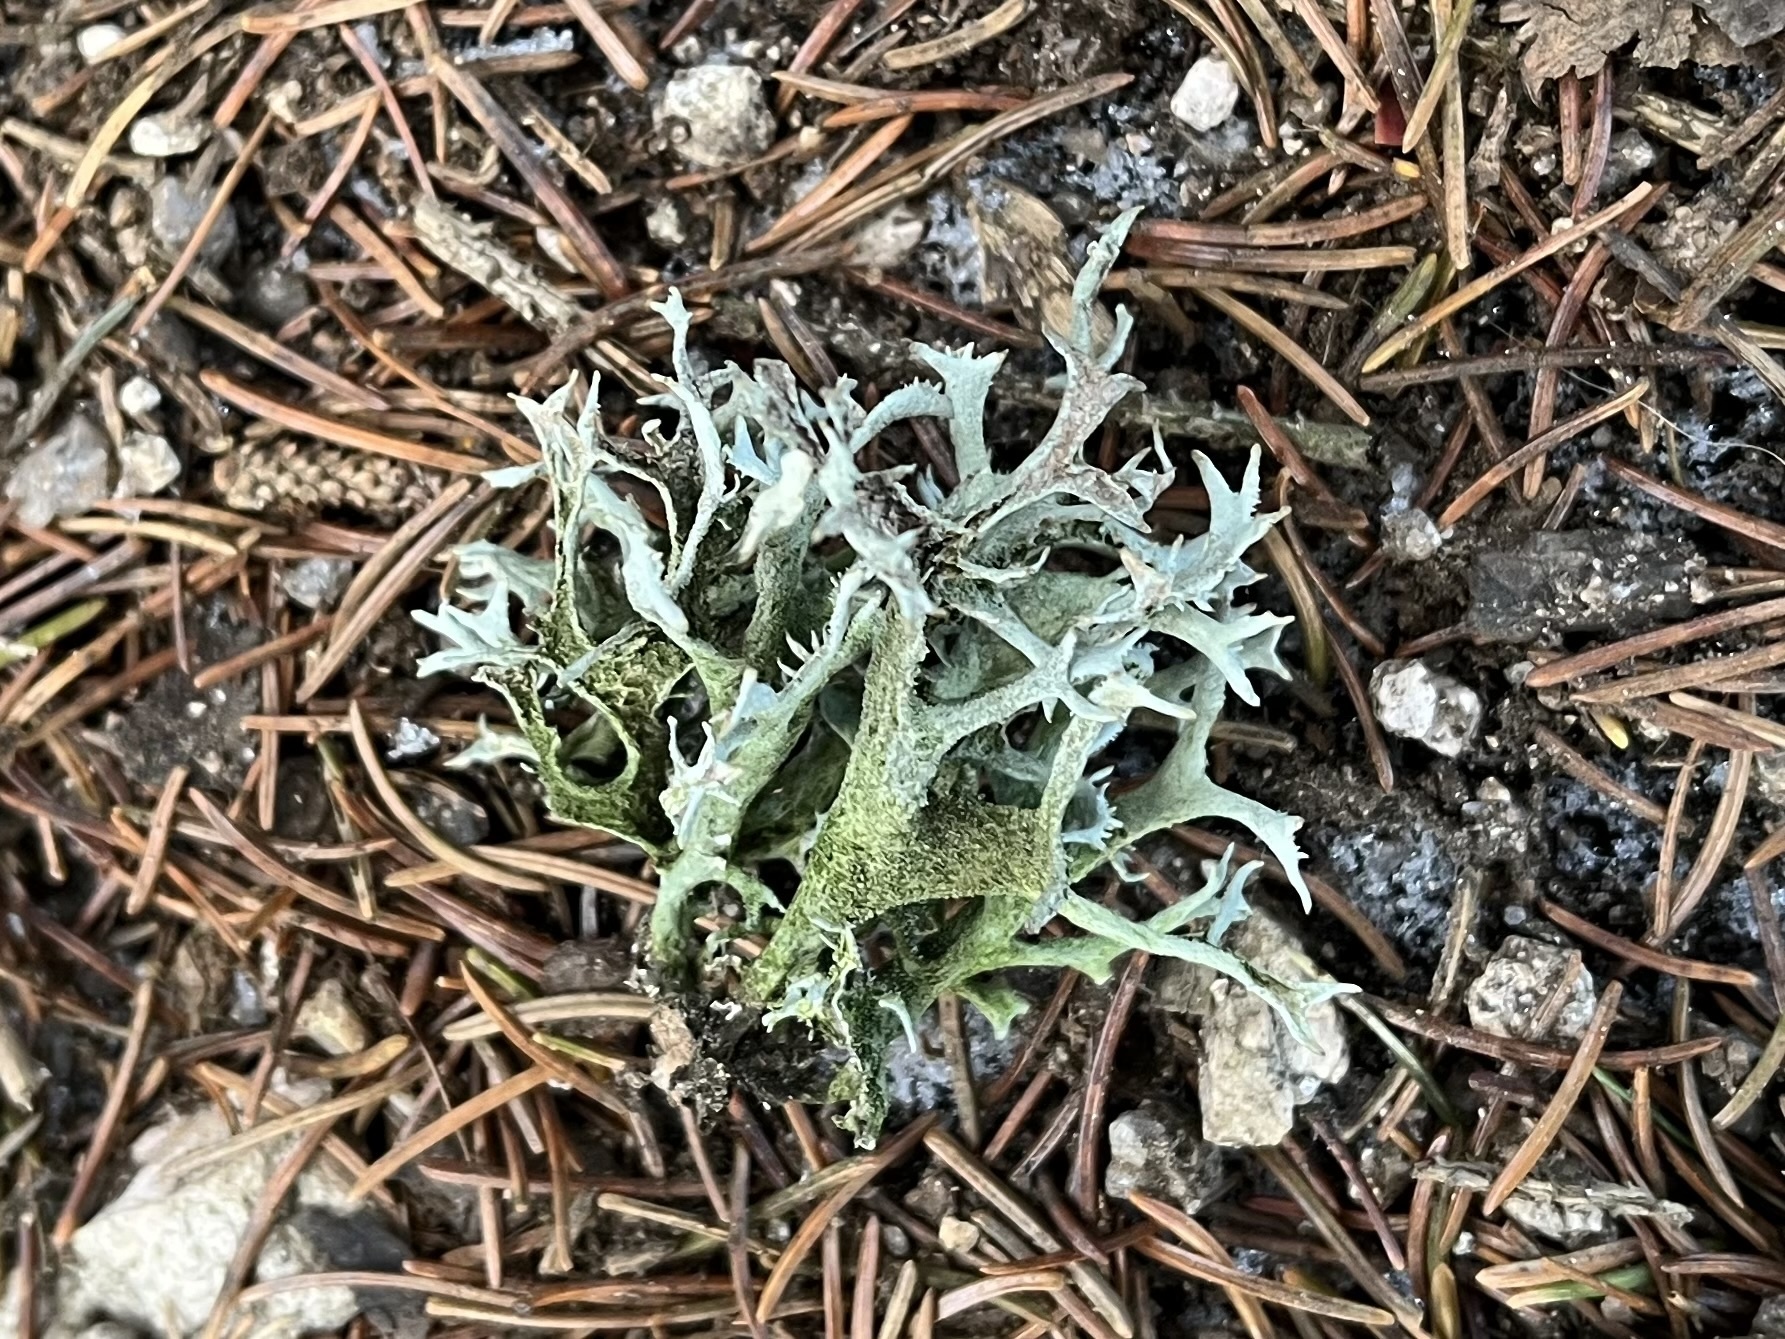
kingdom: Fungi
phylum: Ascomycota
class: Lecanoromycetes
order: Lecanorales
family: Parmeliaceae
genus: Pseudevernia
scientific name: Pseudevernia furfuracea
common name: Tree moss
